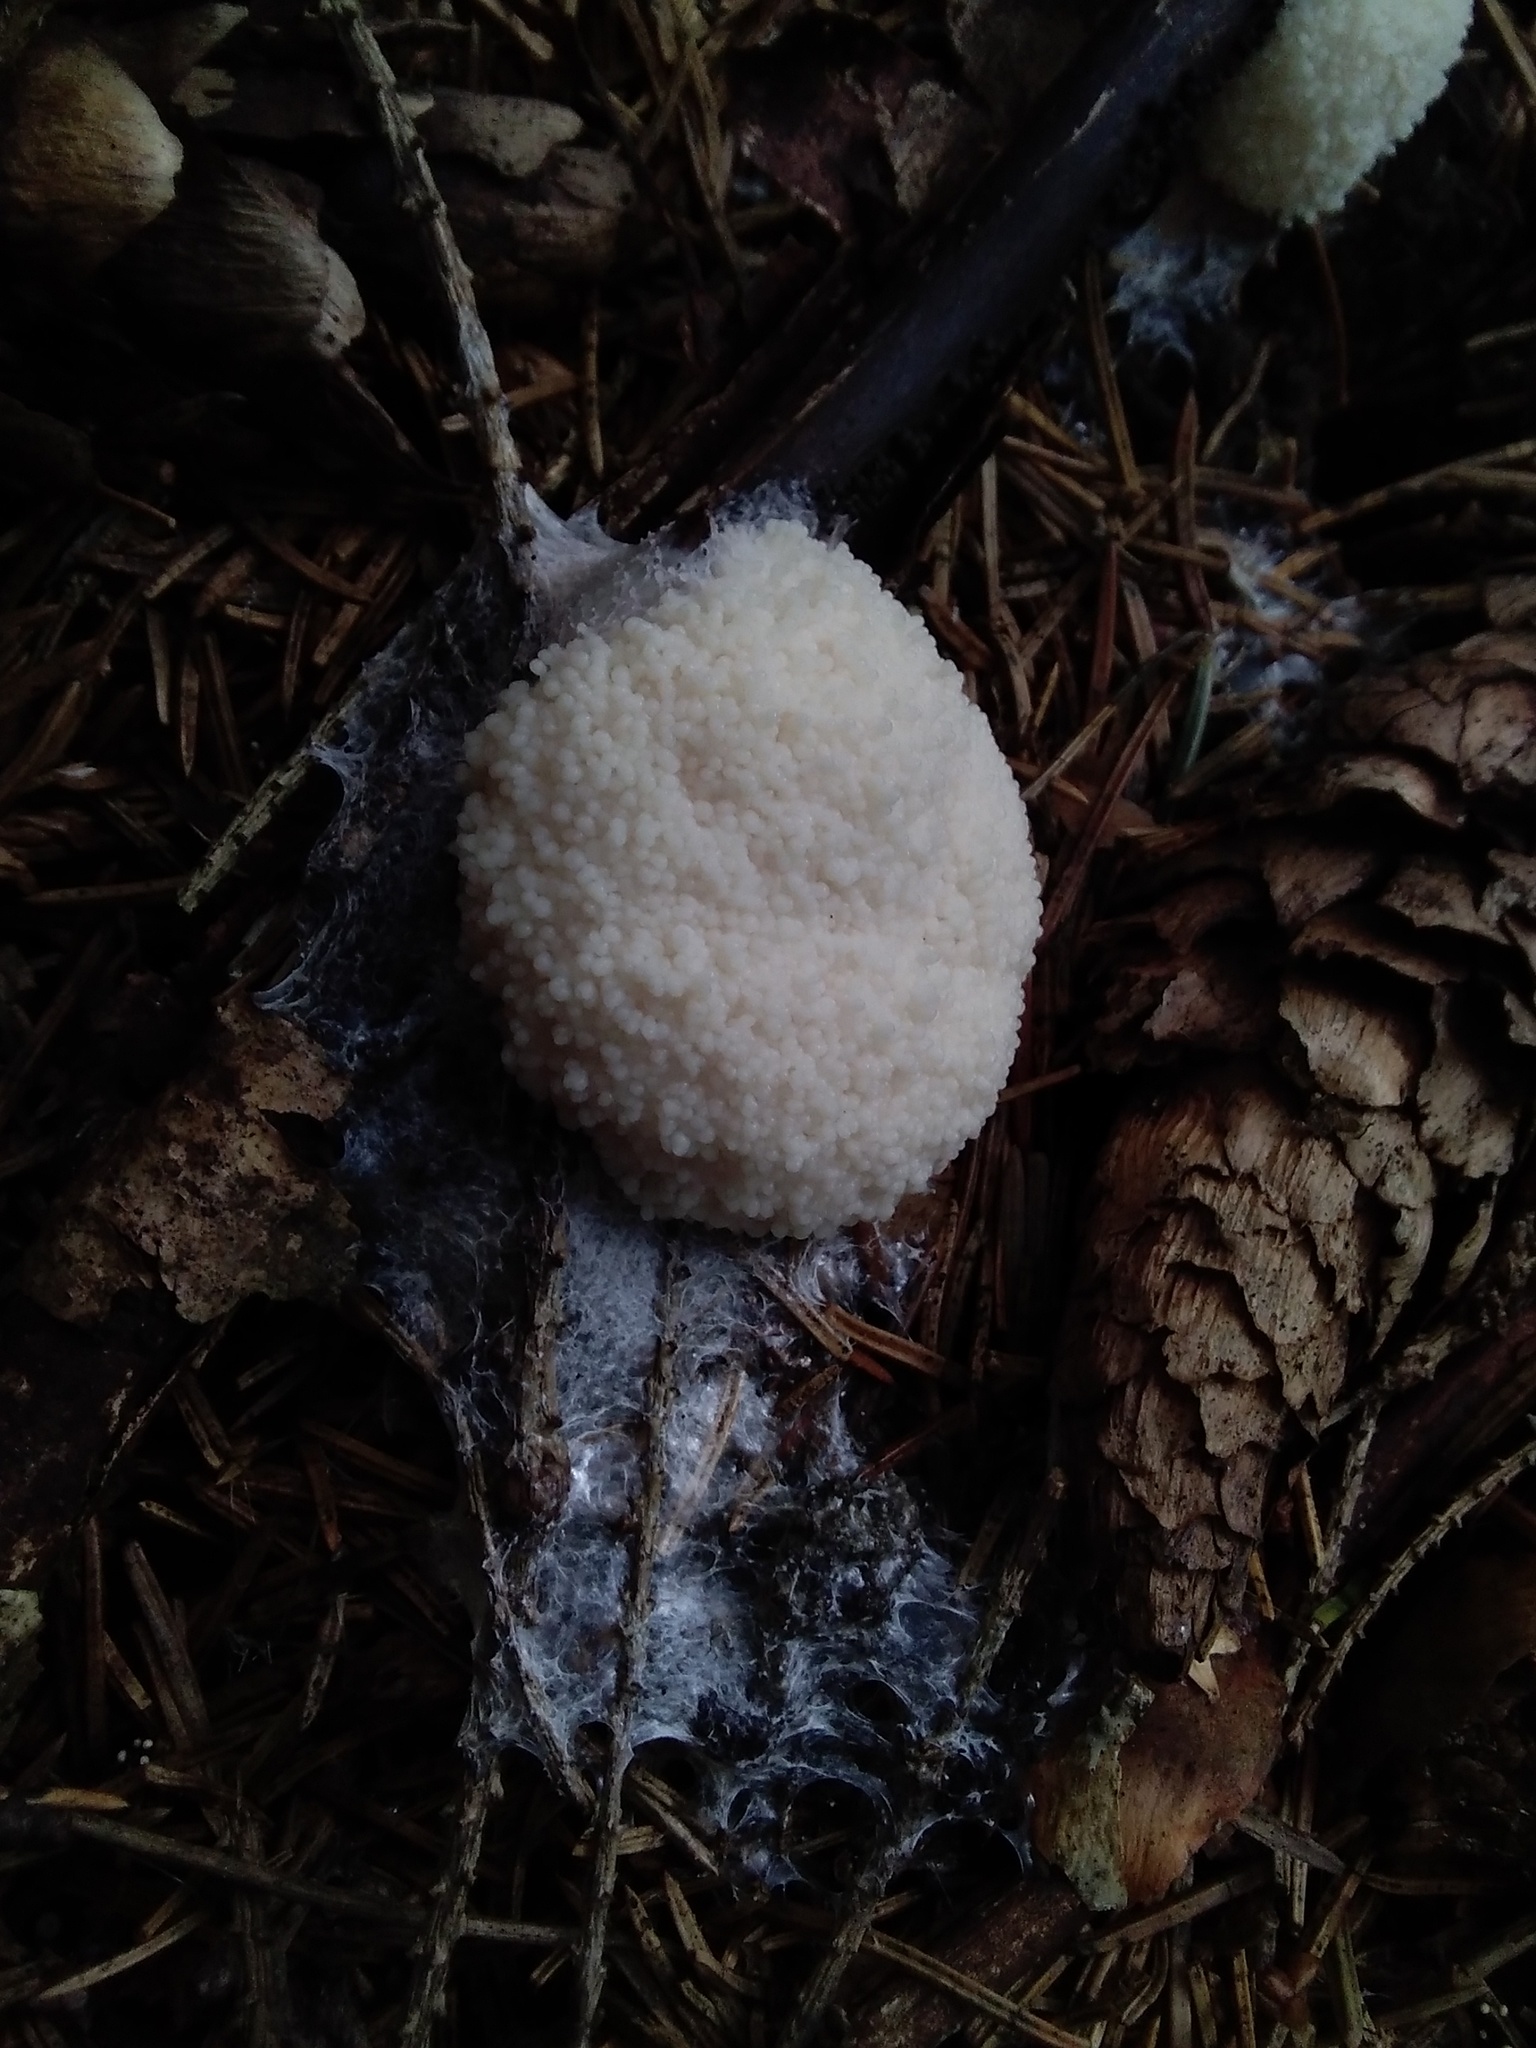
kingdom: Protozoa
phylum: Mycetozoa
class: Myxomycetes
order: Physarales
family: Physaraceae
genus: Didymium
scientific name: Didymium
